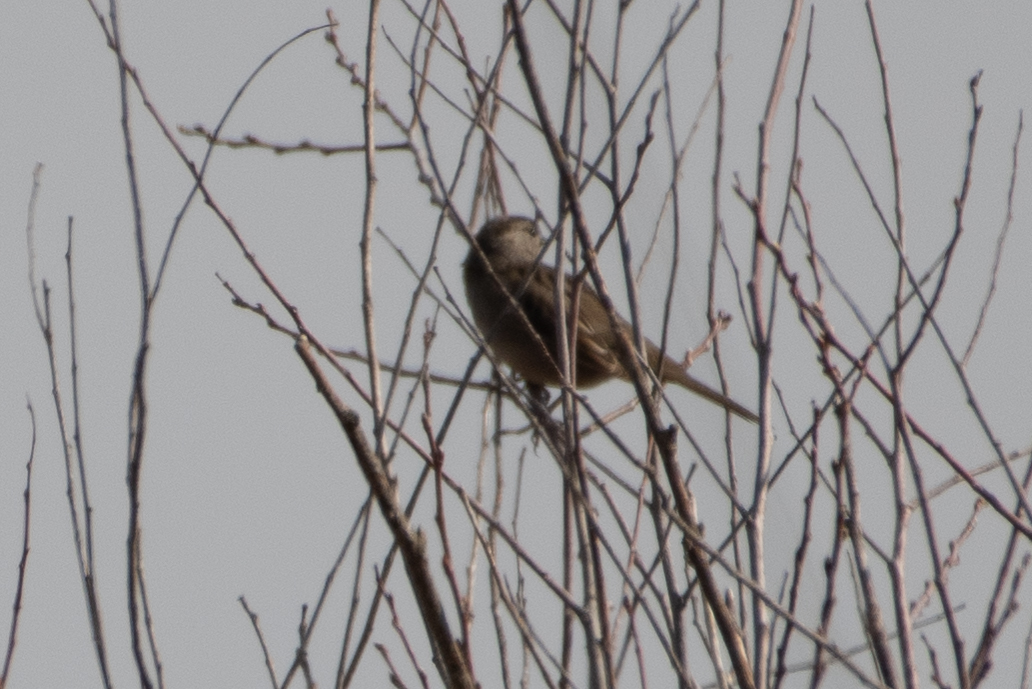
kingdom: Animalia
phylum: Chordata
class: Aves
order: Passeriformes
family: Passerellidae
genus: Zonotrichia
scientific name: Zonotrichia atricapilla
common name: Golden-crowned sparrow
